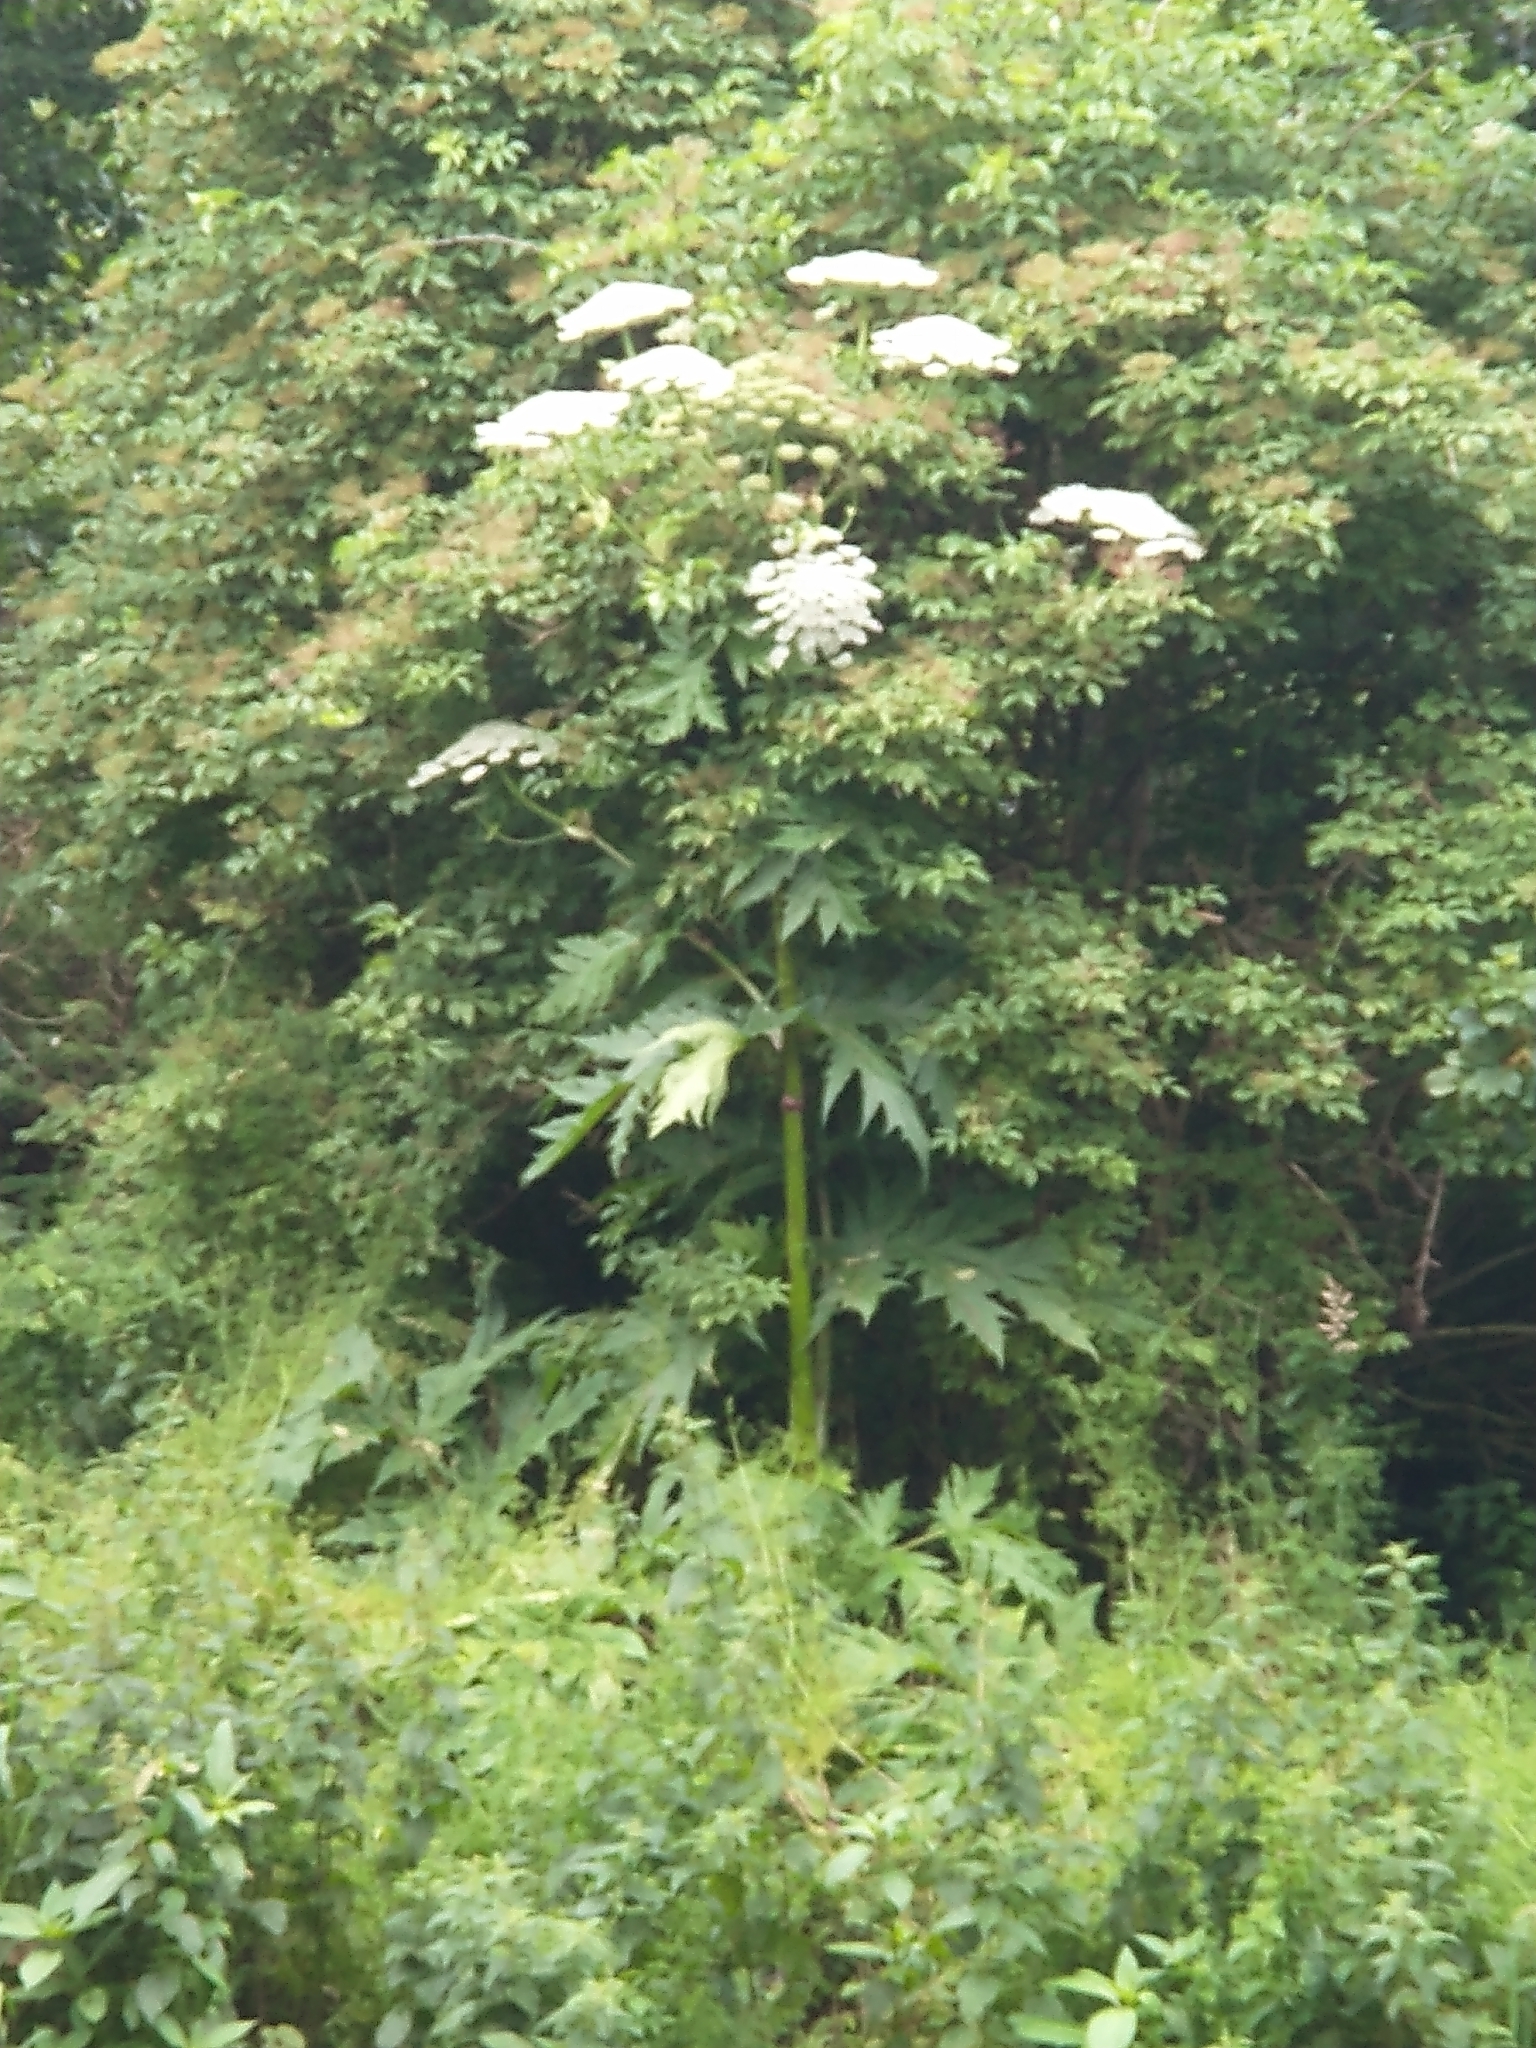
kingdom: Plantae
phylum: Tracheophyta
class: Magnoliopsida
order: Apiales
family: Apiaceae
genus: Heracleum
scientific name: Heracleum mantegazzianum
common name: Giant hogweed
